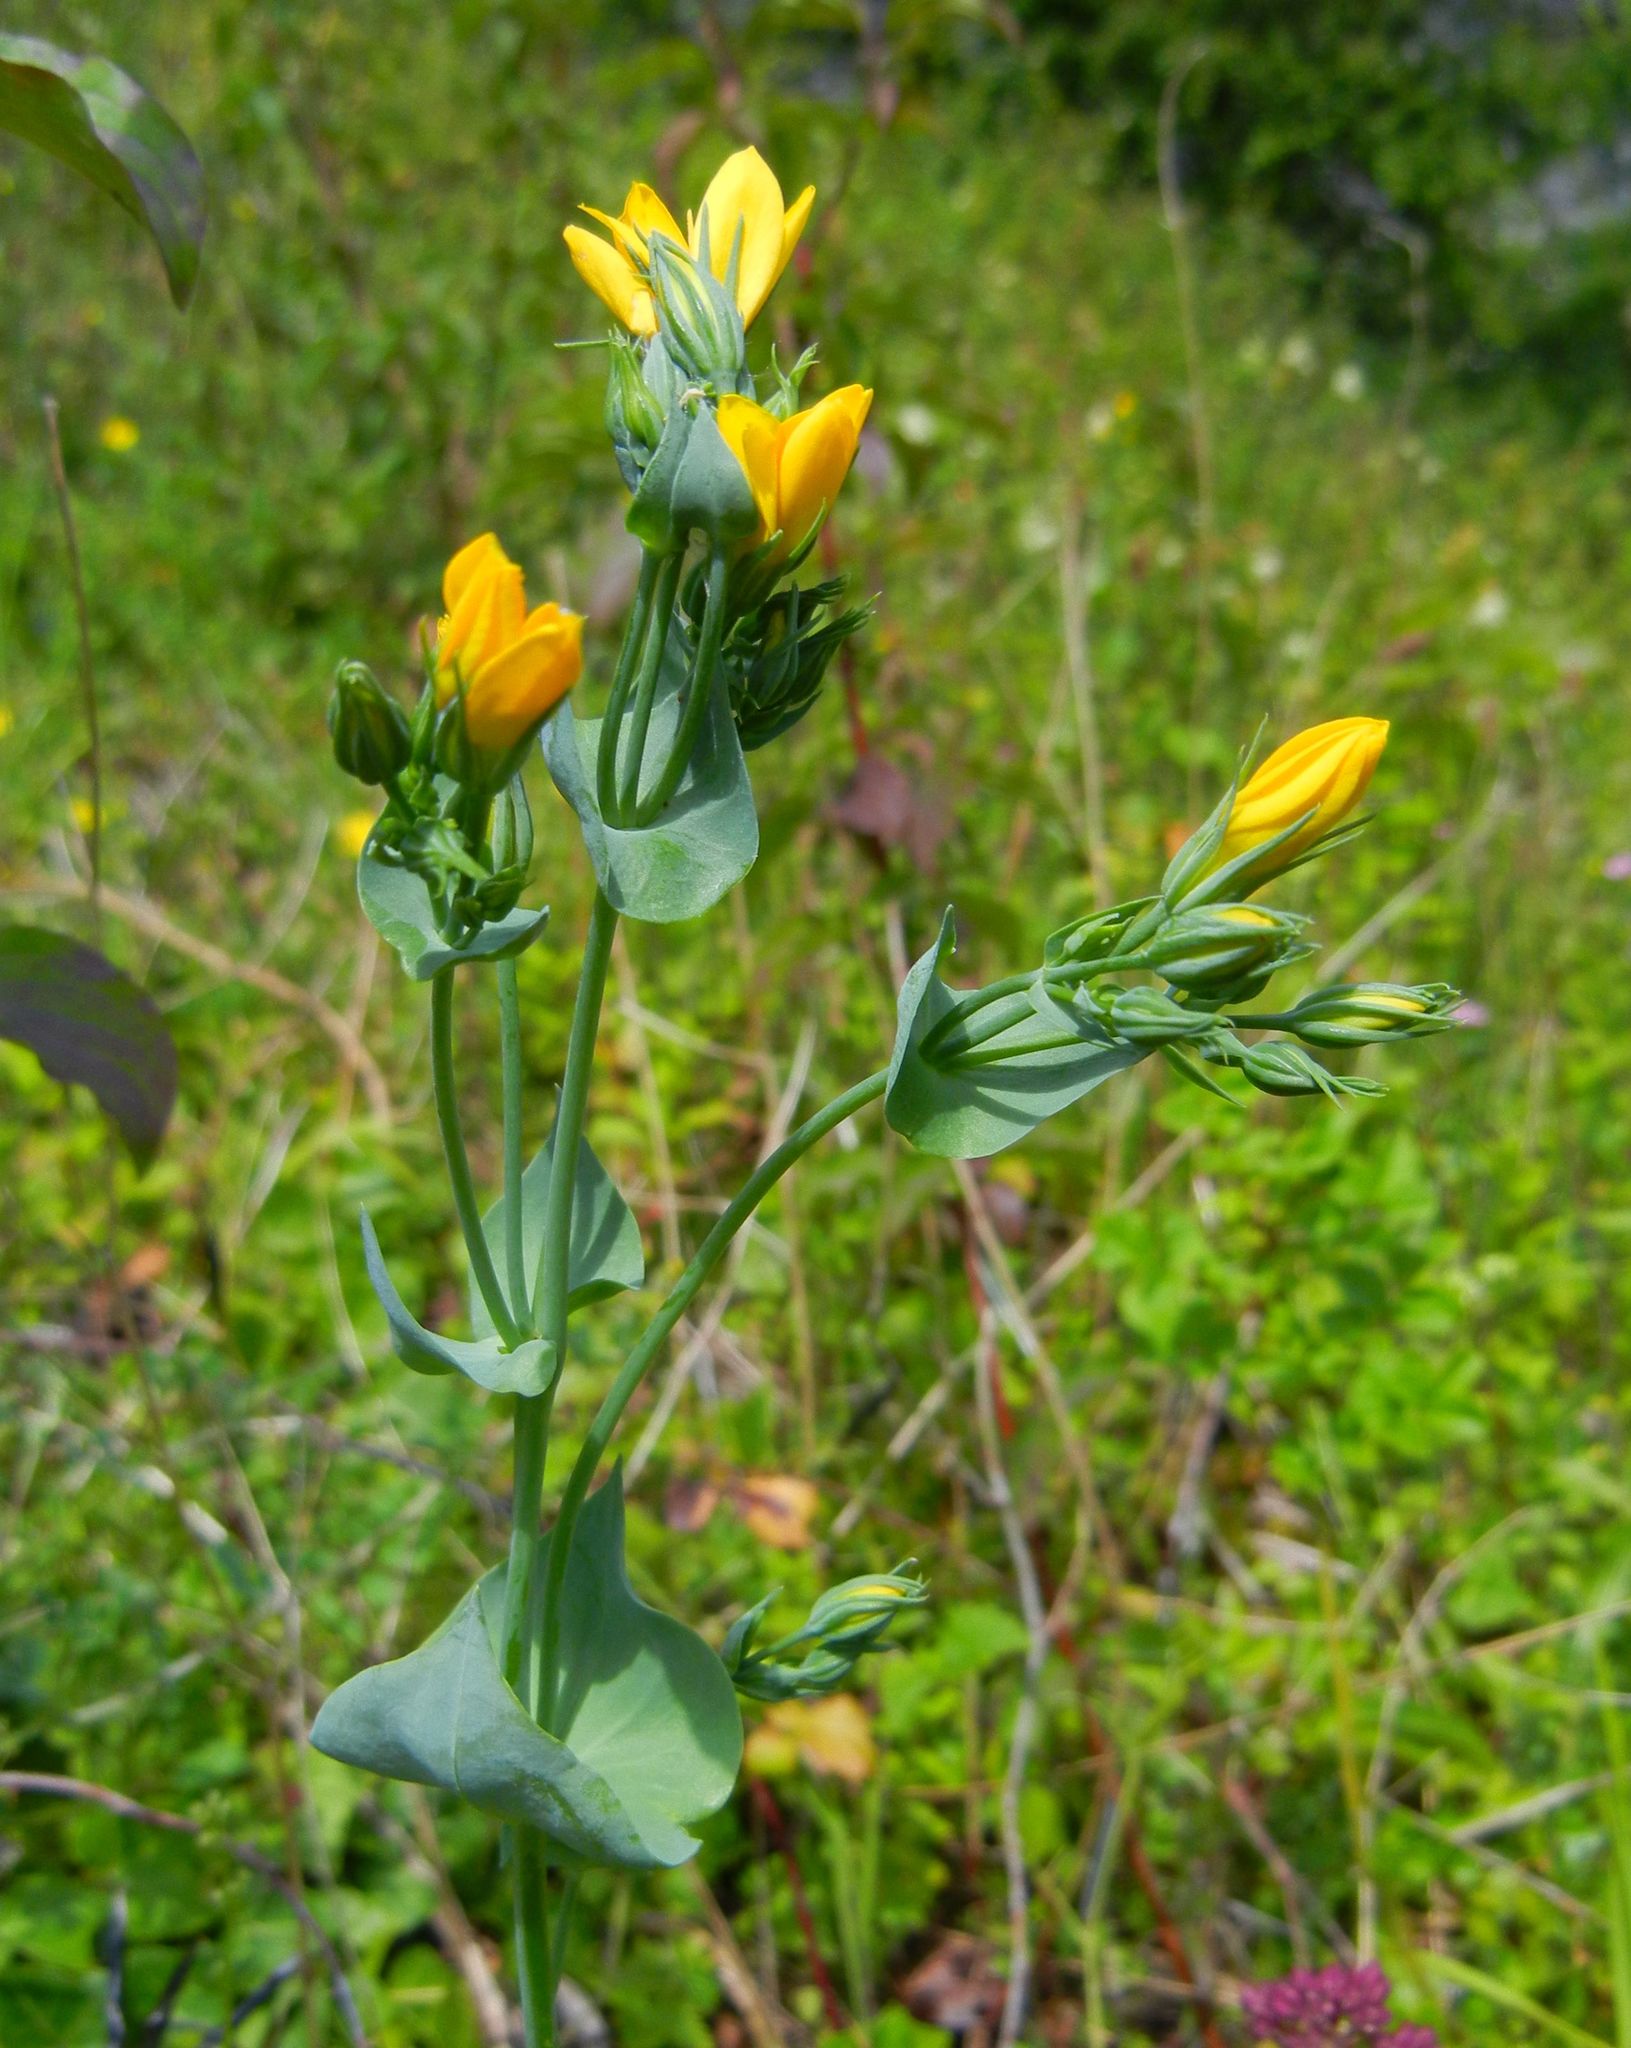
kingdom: Plantae
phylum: Tracheophyta
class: Magnoliopsida
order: Gentianales
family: Gentianaceae
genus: Blackstonia
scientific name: Blackstonia perfoliata
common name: Yellow-wort
